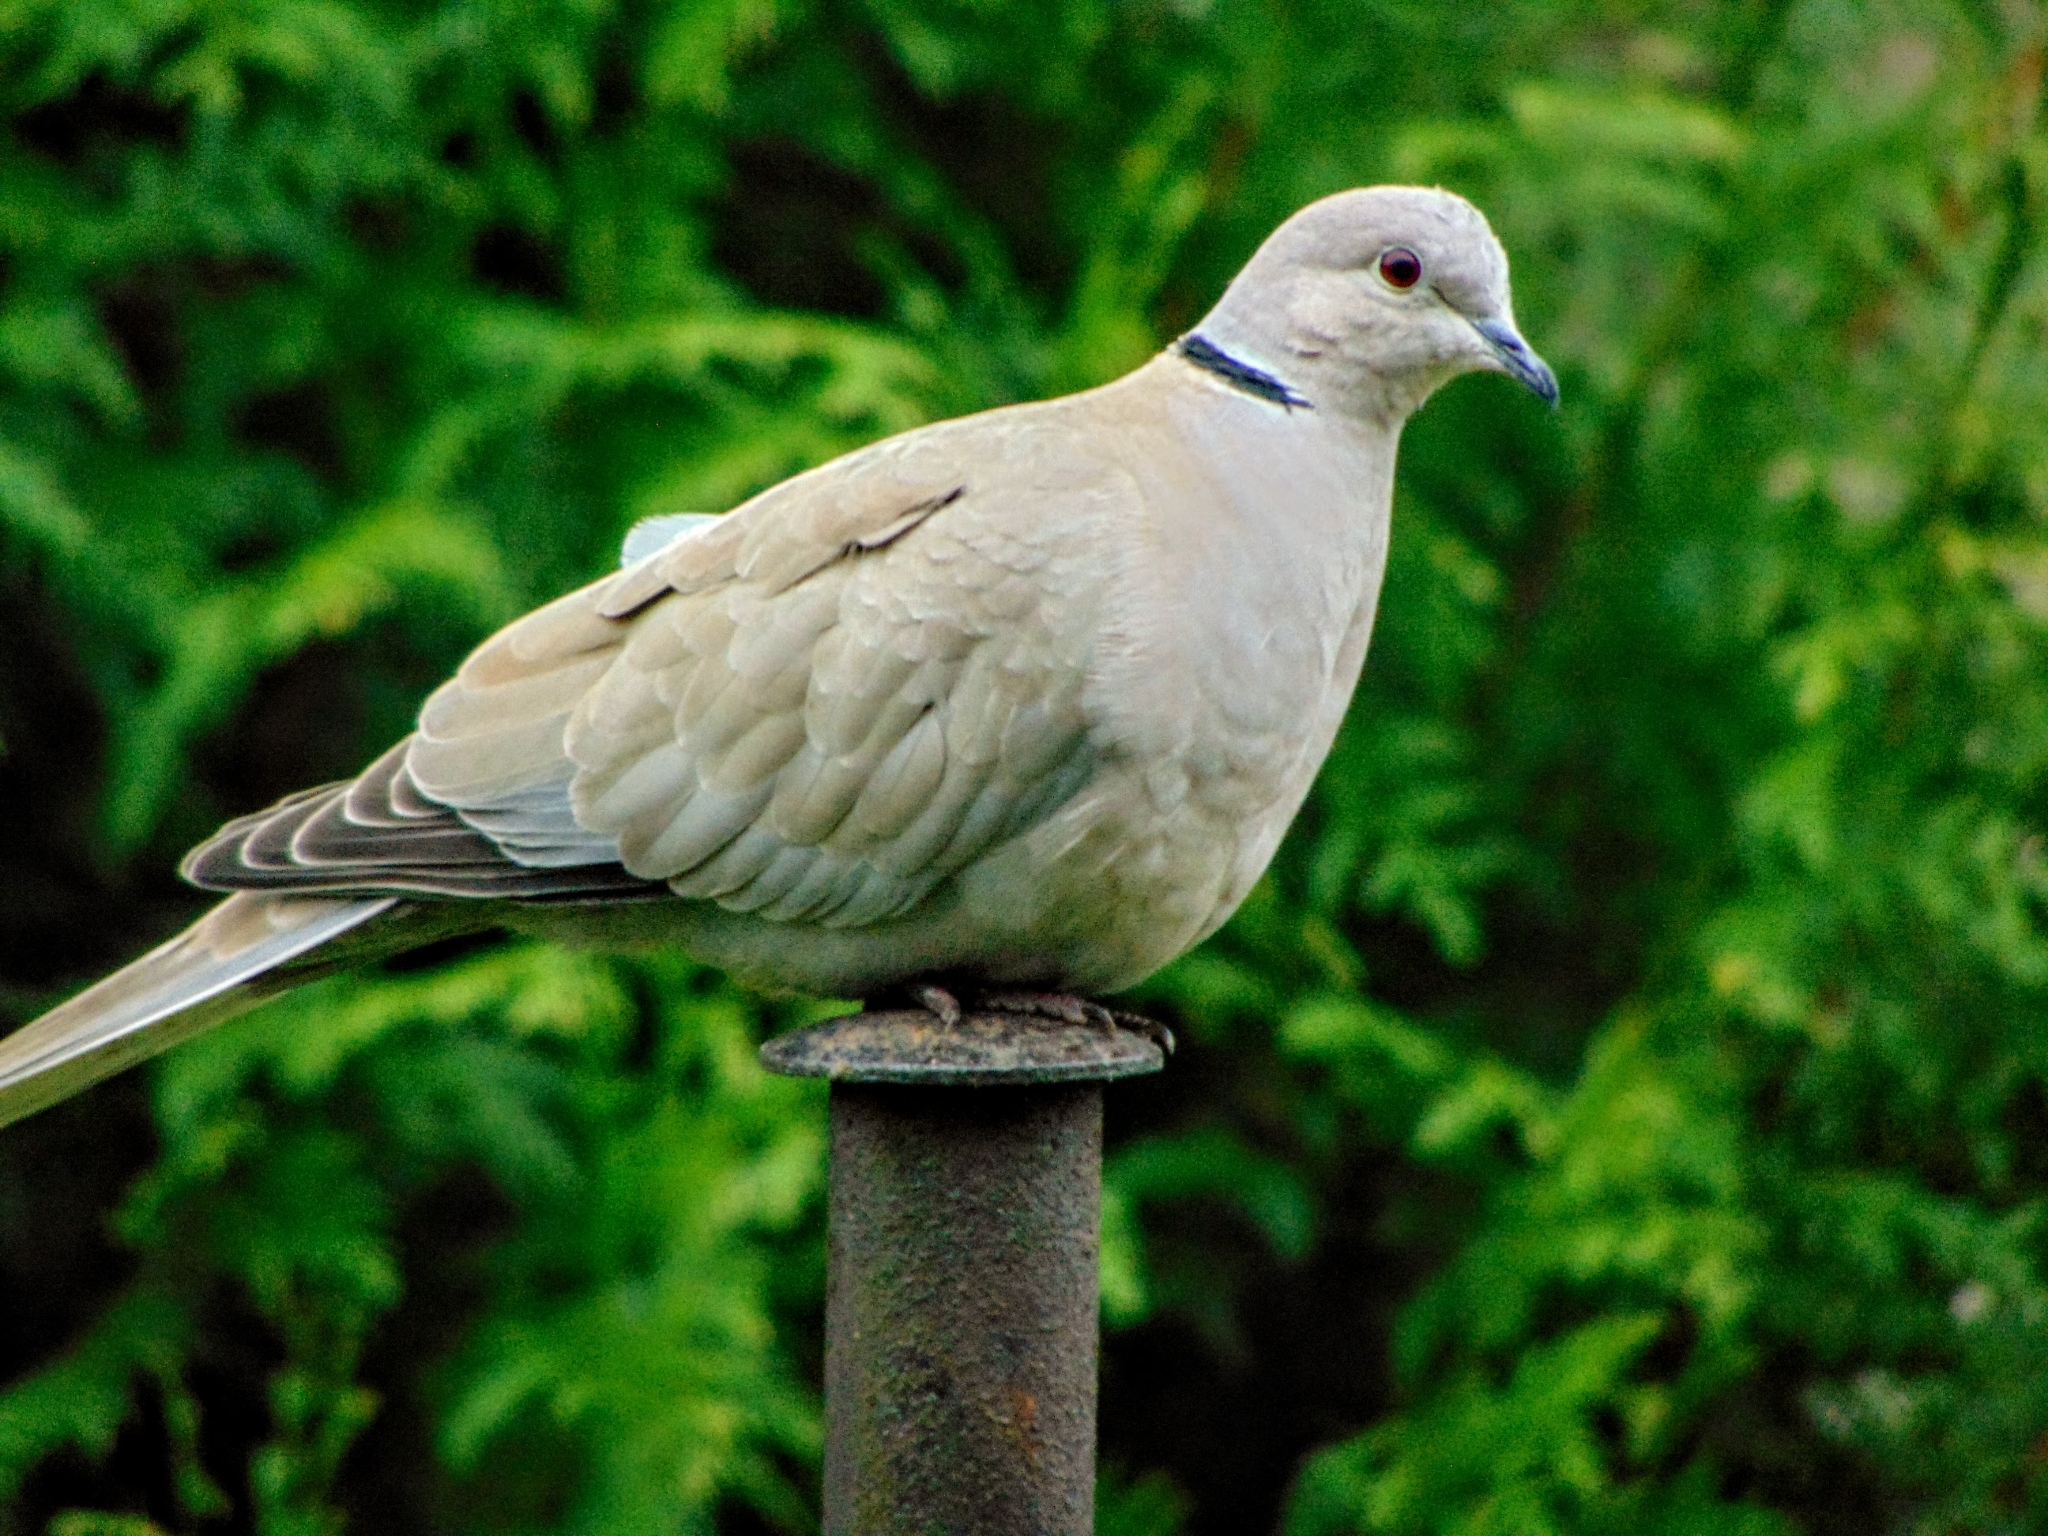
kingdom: Animalia
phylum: Chordata
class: Aves
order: Columbiformes
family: Columbidae
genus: Streptopelia
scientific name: Streptopelia decaocto
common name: Eurasian collared dove
